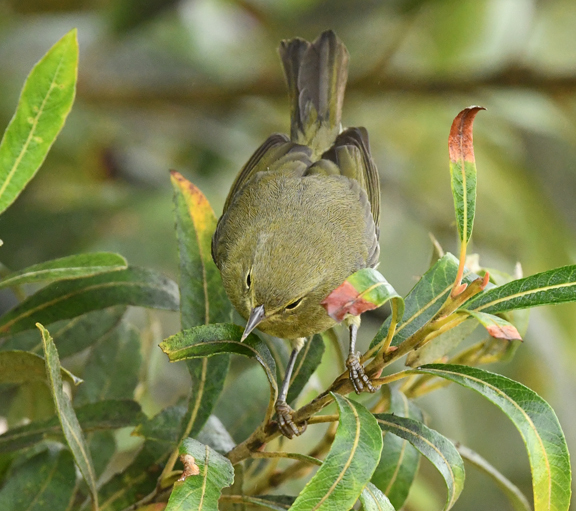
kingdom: Animalia
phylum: Chordata
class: Aves
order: Passeriformes
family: Parulidae
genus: Leiothlypis
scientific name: Leiothlypis celata
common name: Orange-crowned warbler
